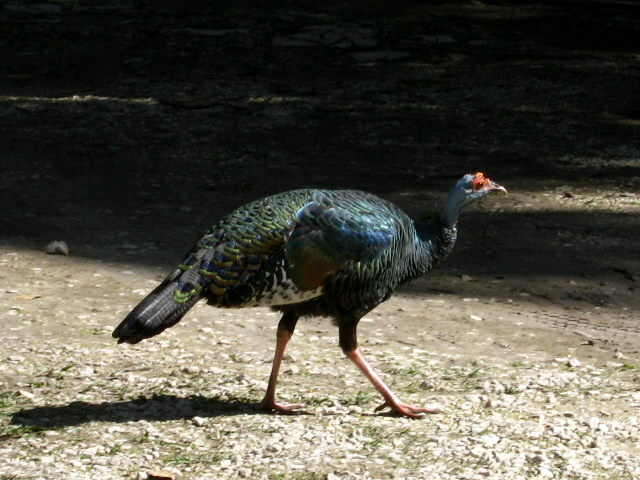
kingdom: Animalia
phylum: Chordata
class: Aves
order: Galliformes
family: Phasianidae
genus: Meleagris
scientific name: Meleagris ocellata
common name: Ocellated turkey
